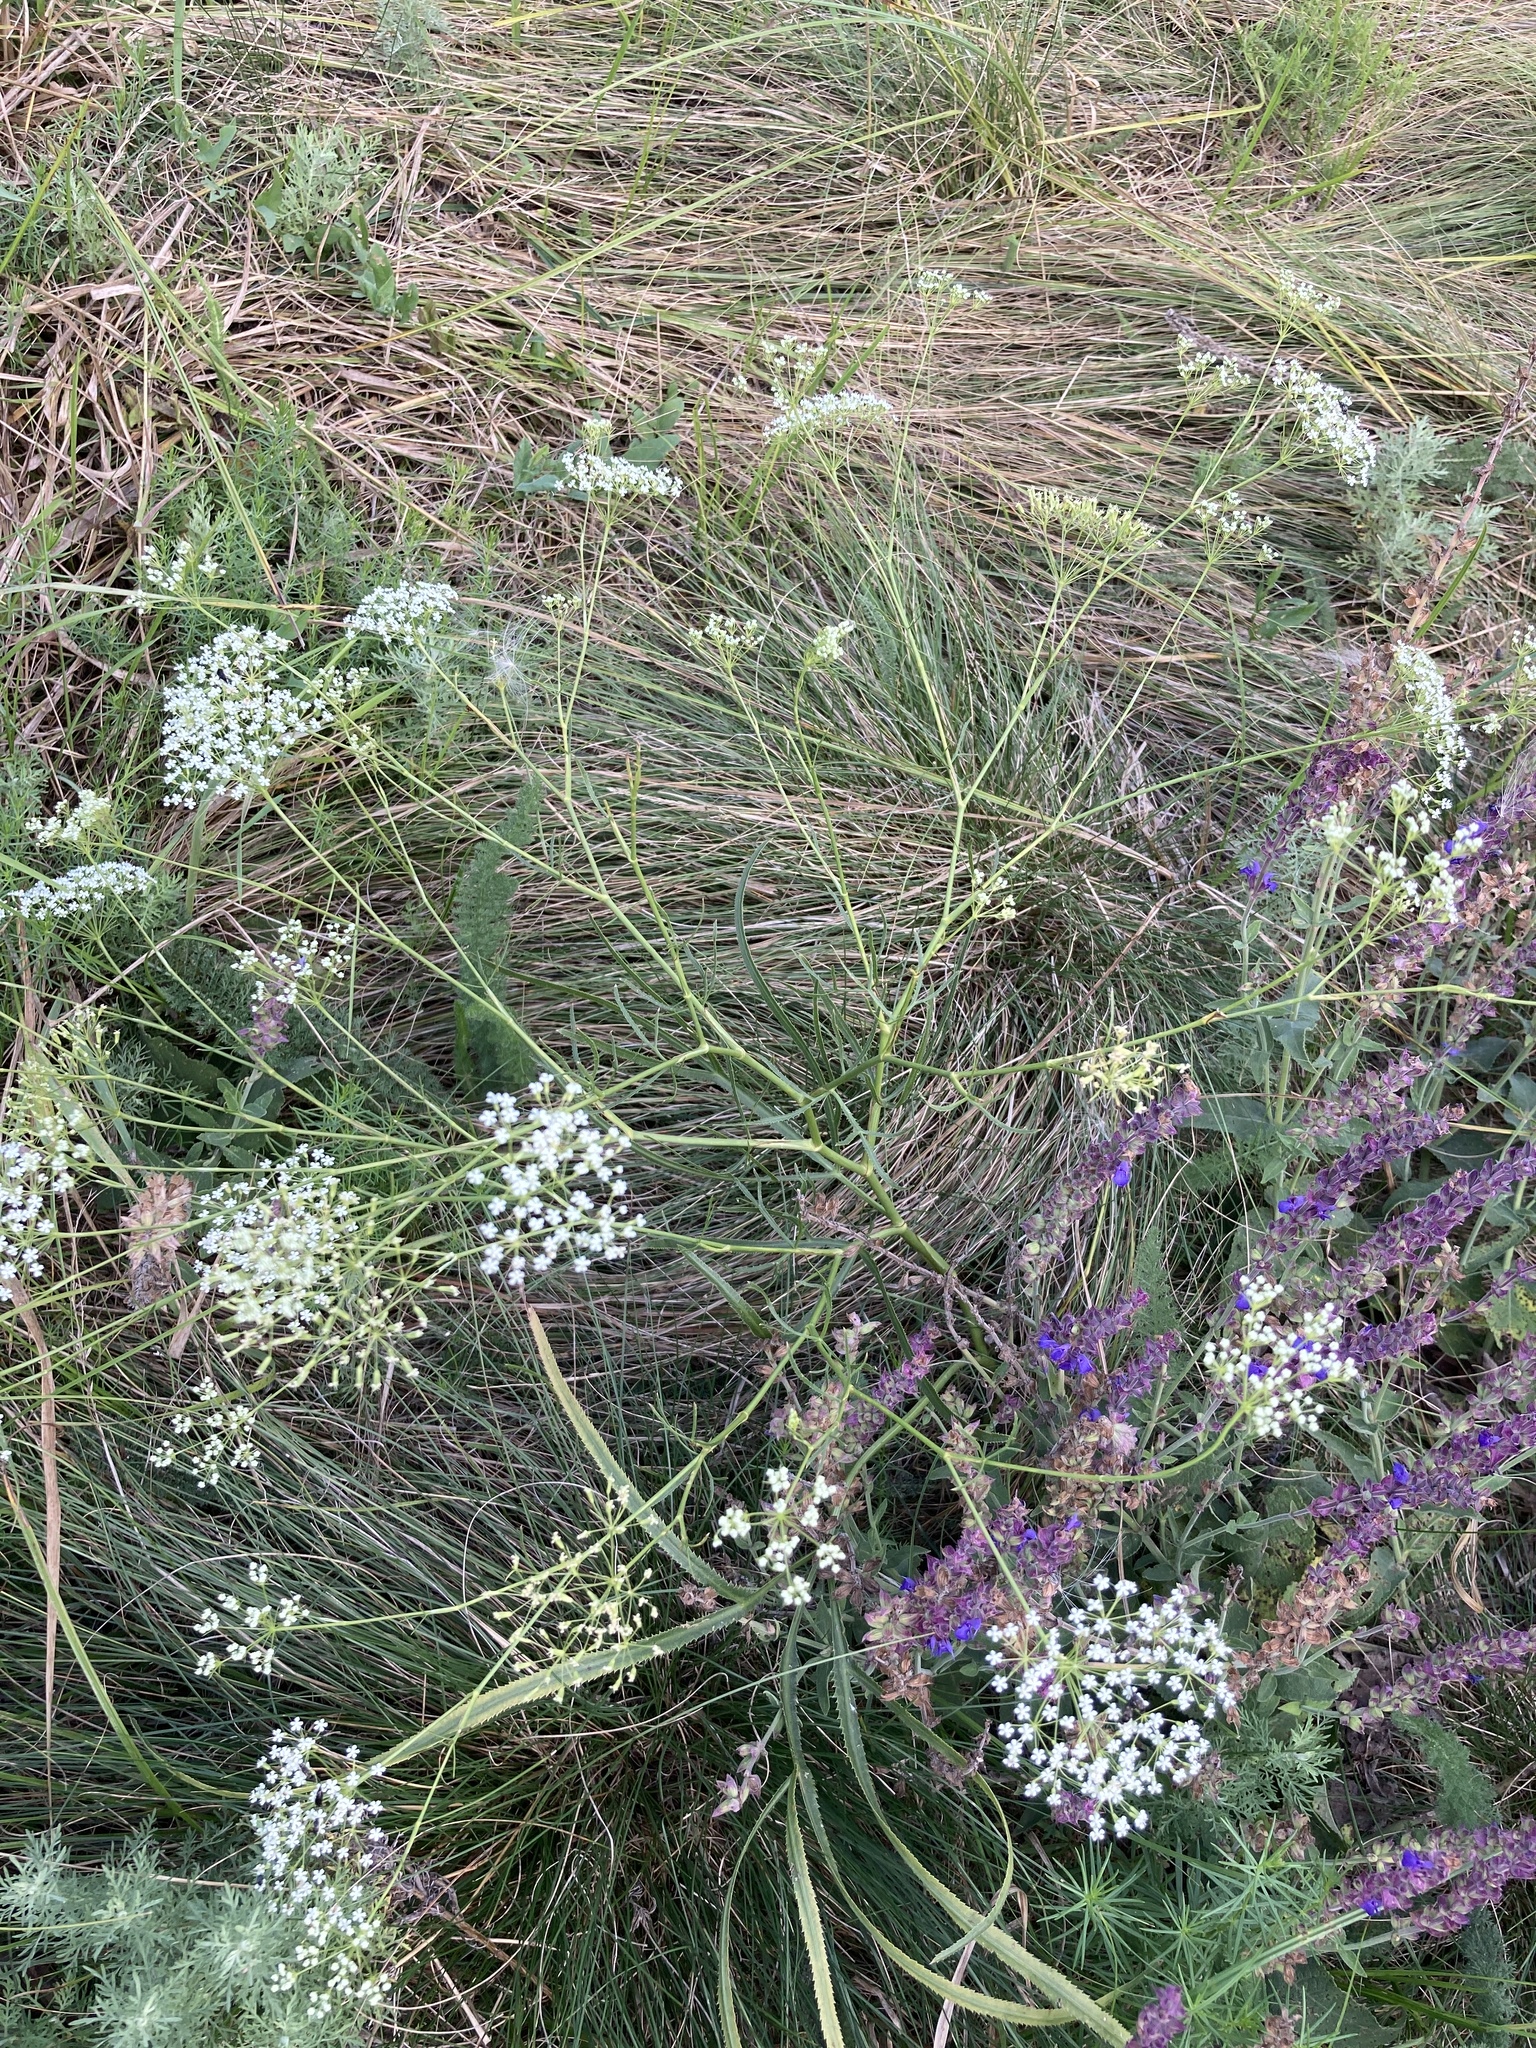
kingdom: Plantae
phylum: Tracheophyta
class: Magnoliopsida
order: Apiales
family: Apiaceae
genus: Falcaria
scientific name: Falcaria vulgaris
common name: Longleaf
